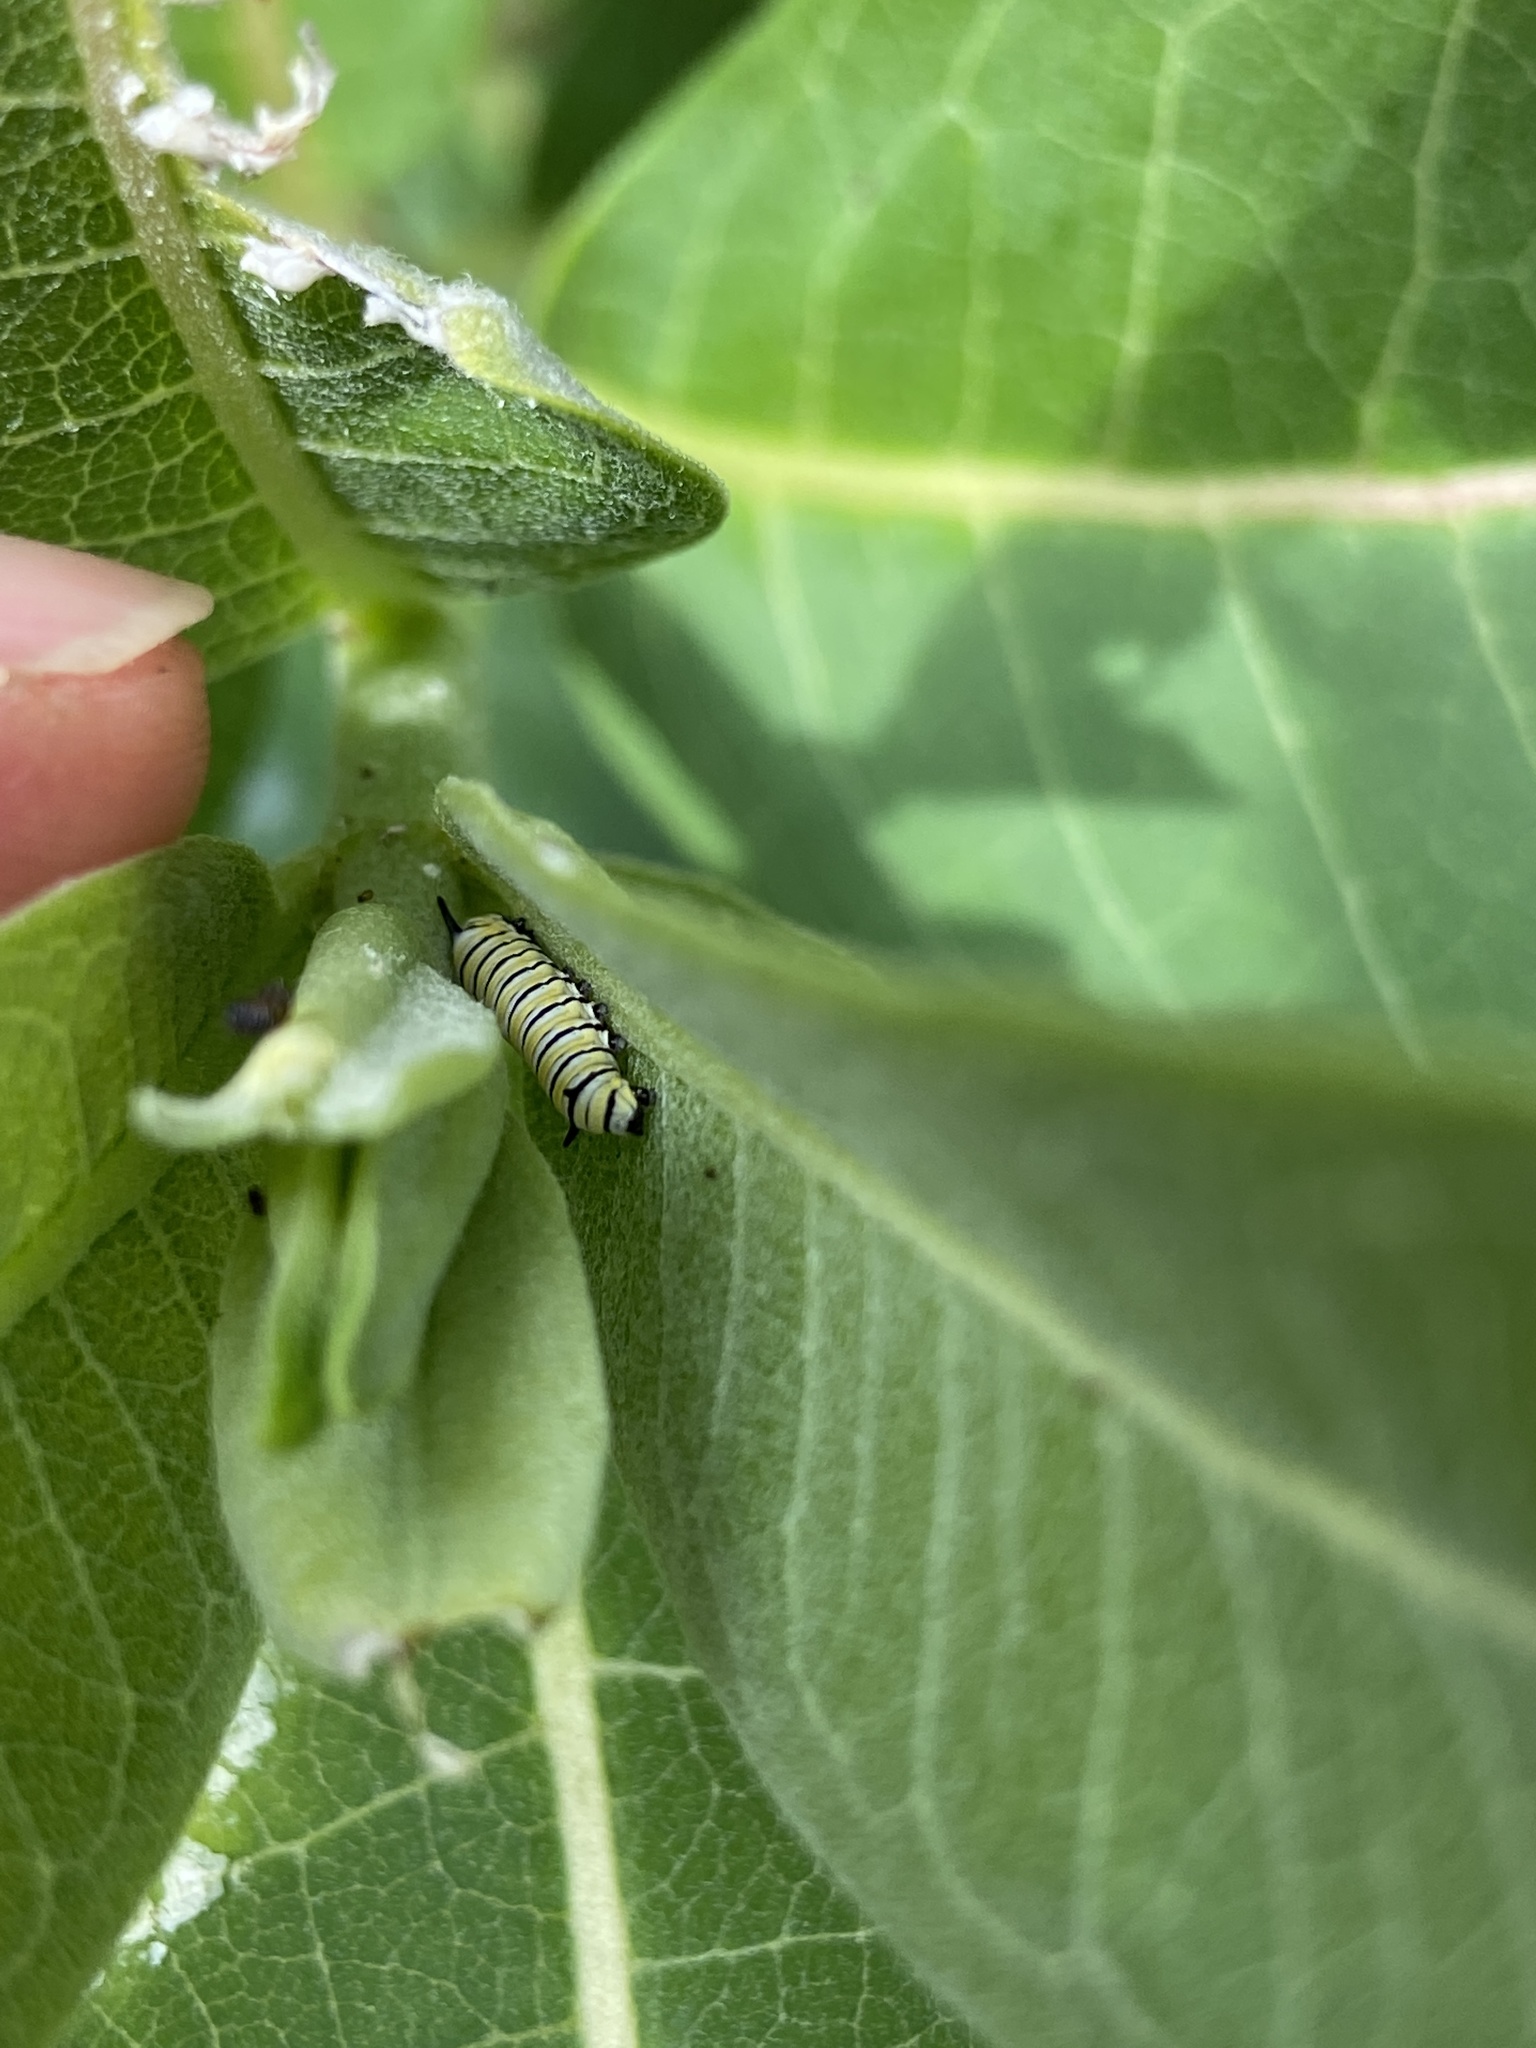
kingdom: Animalia
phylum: Arthropoda
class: Insecta
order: Lepidoptera
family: Nymphalidae
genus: Danaus
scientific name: Danaus plexippus
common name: Monarch
